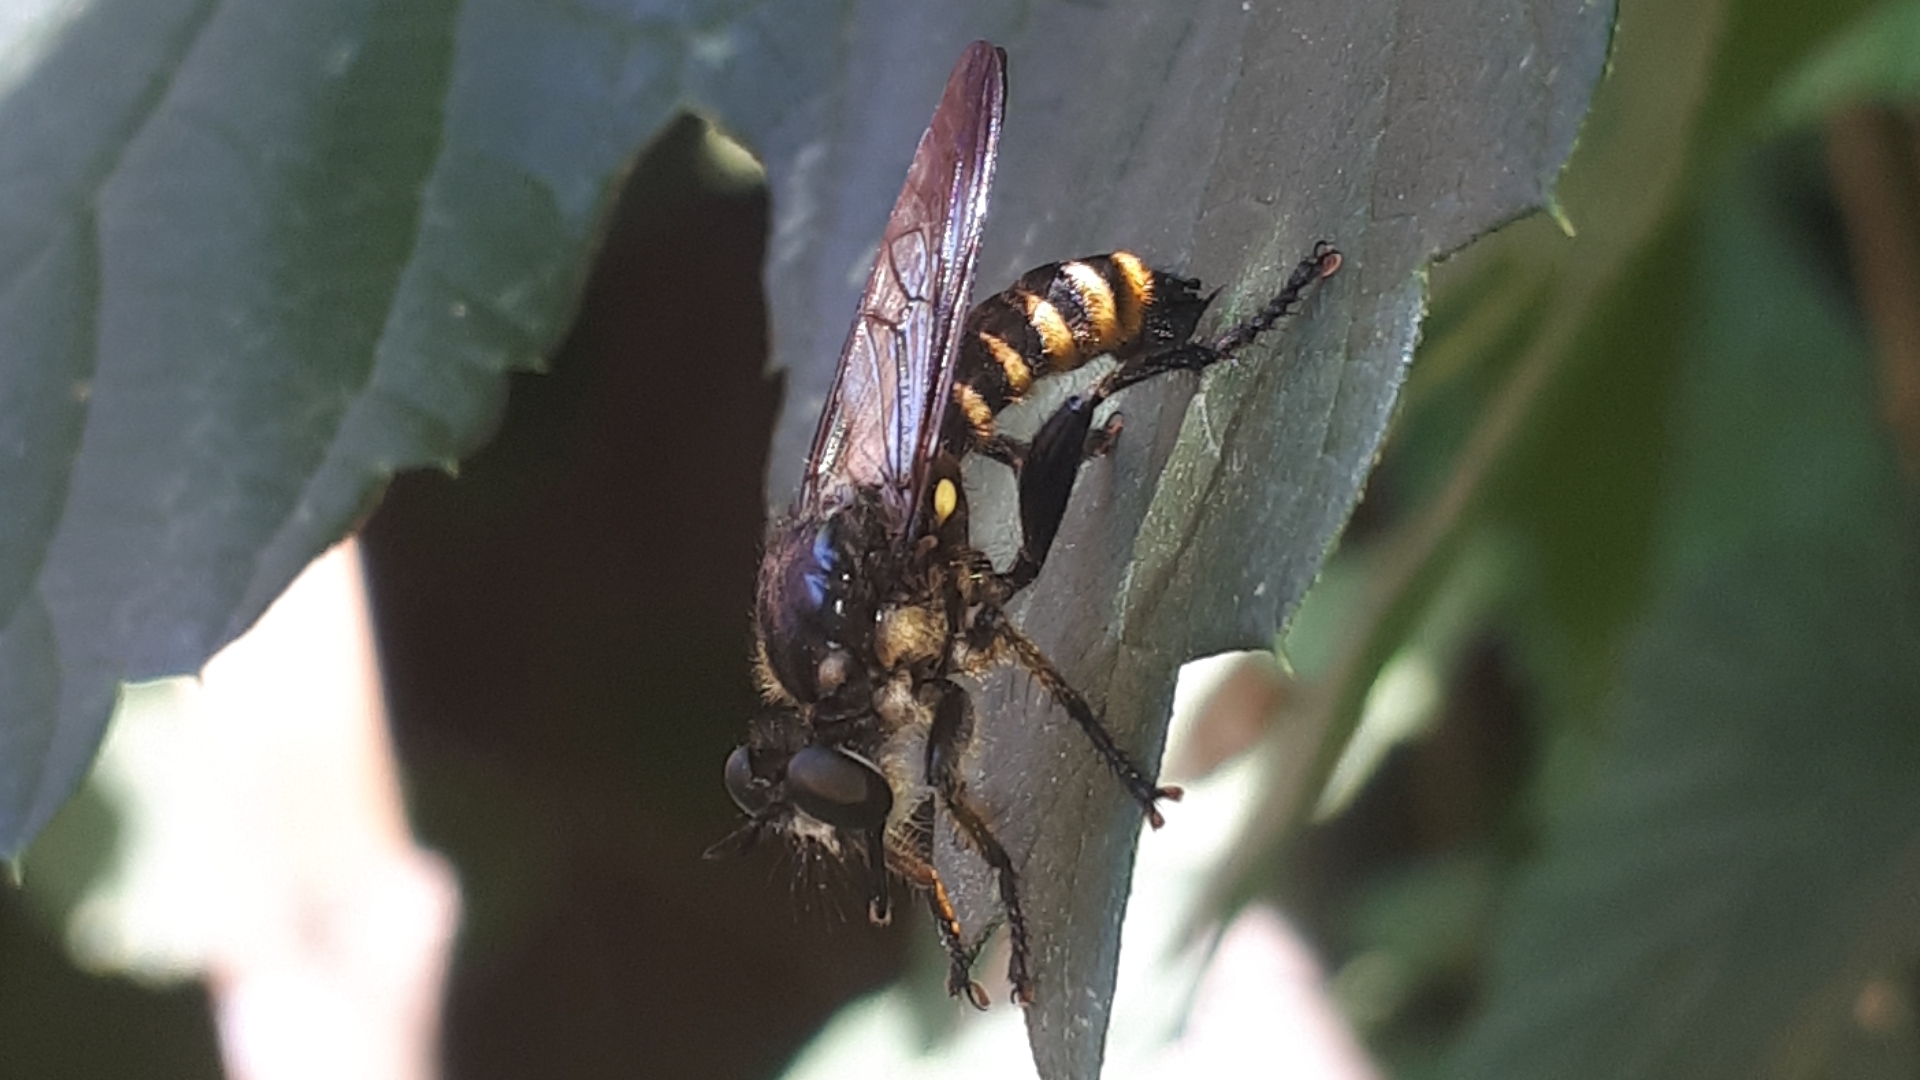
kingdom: Animalia
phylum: Arthropoda
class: Insecta
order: Diptera
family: Asilidae
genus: Lamyra
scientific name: Lamyra fimbriata
